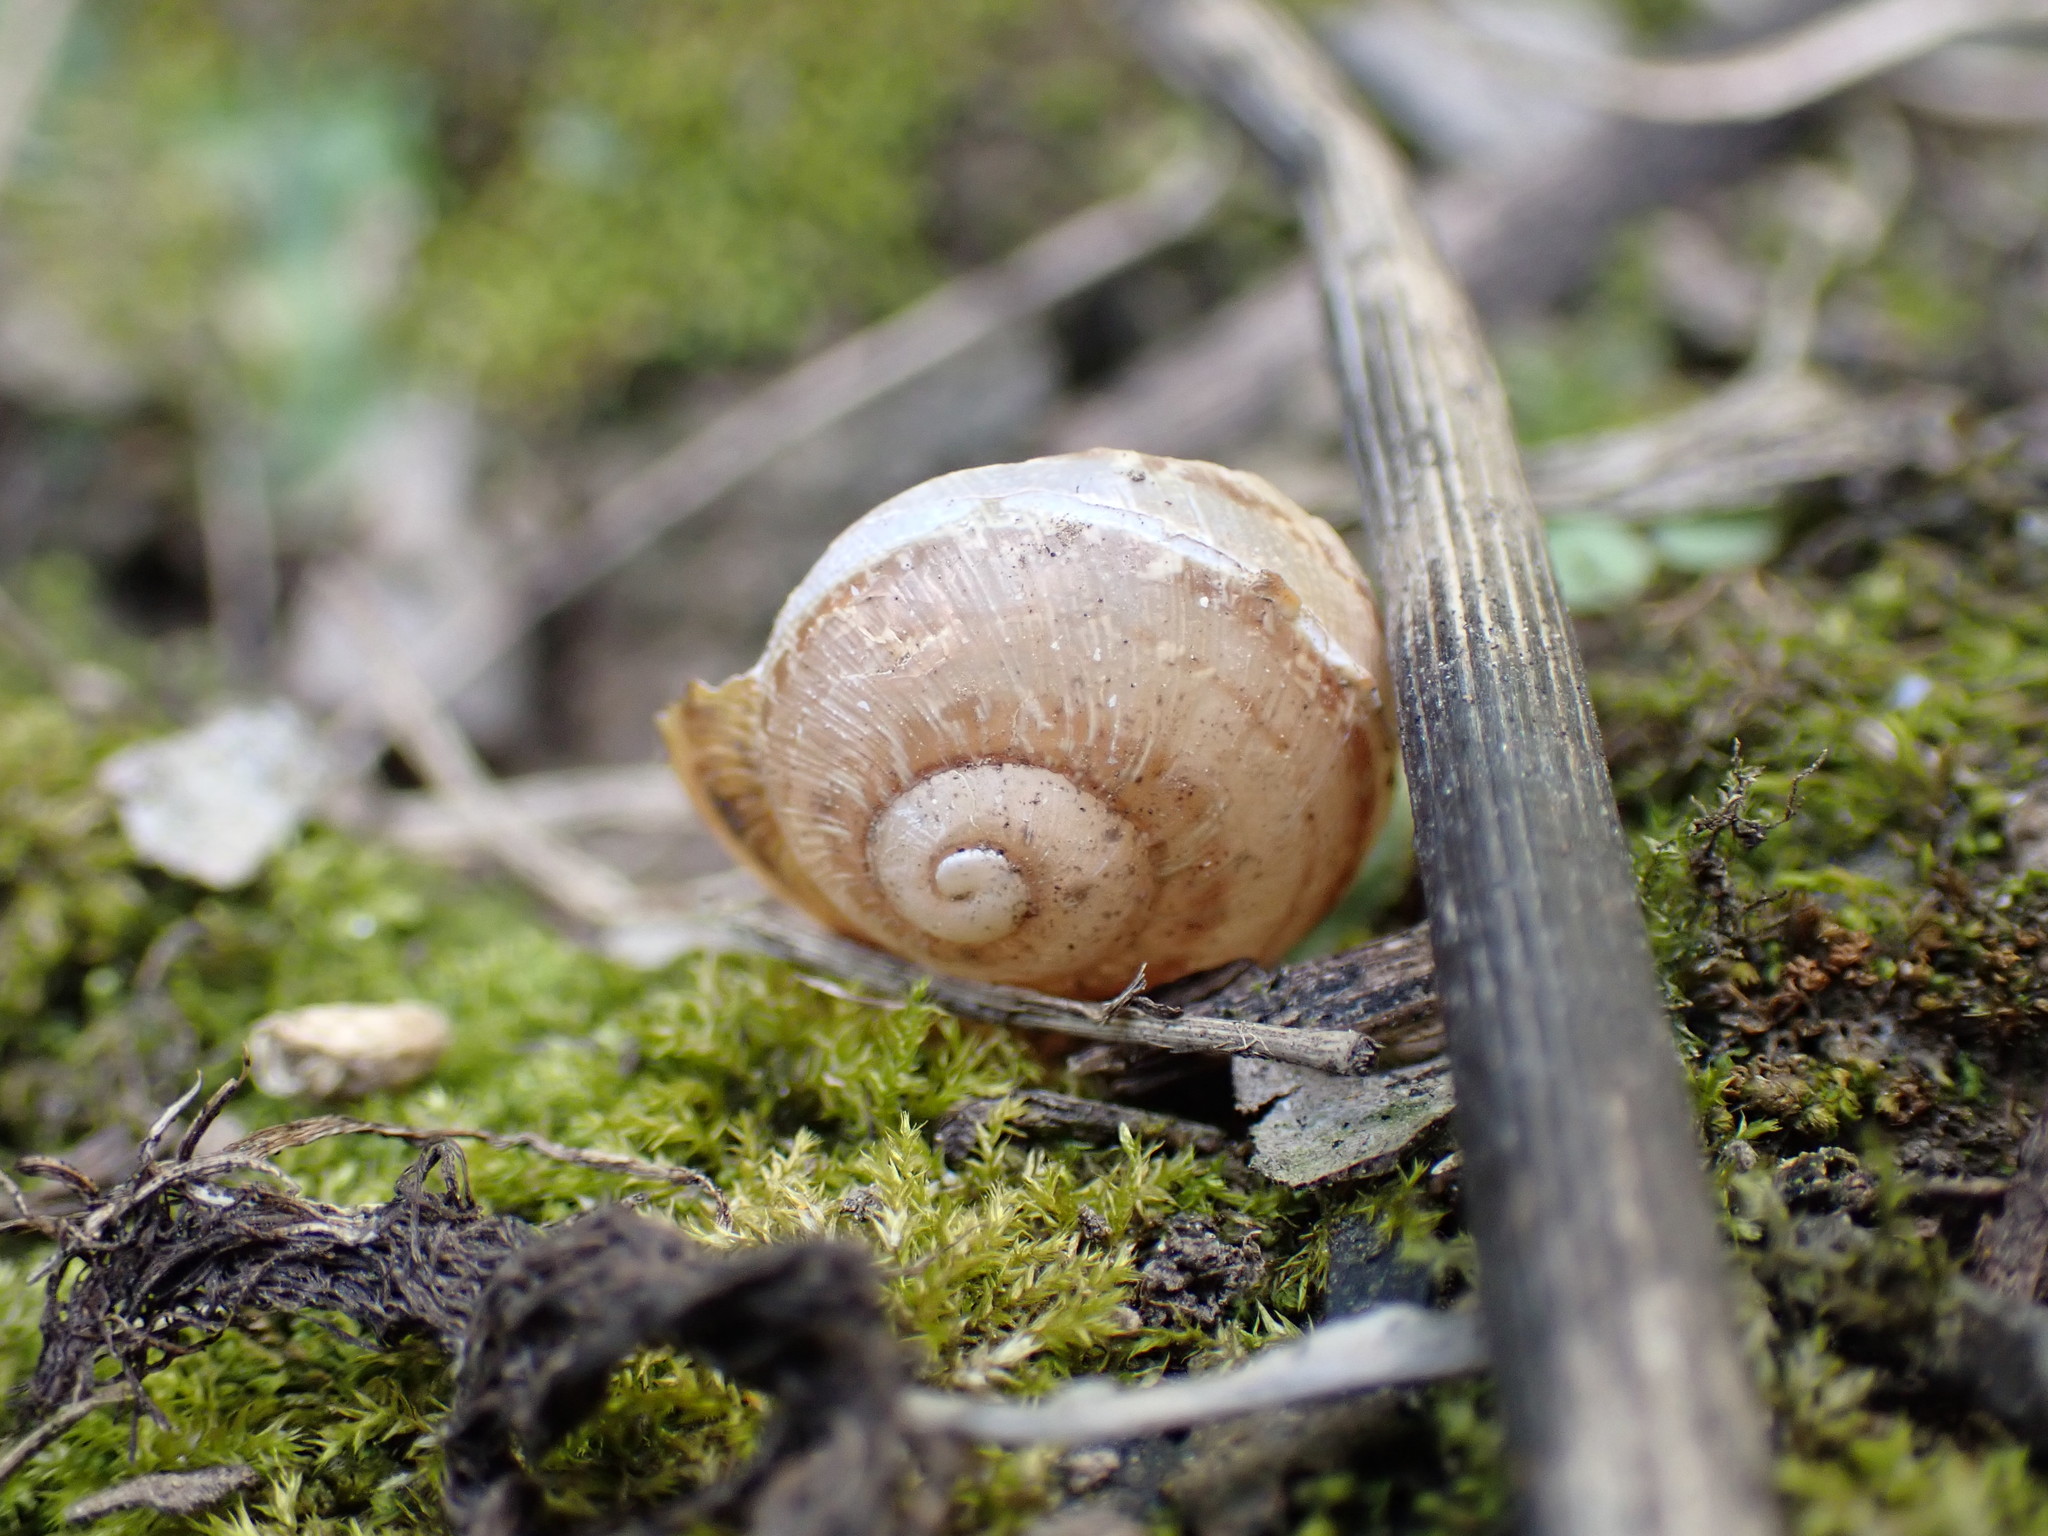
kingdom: Animalia
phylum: Mollusca
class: Gastropoda
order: Stylommatophora
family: Helicidae
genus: Cornu
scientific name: Cornu aspersum
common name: Brown garden snail
